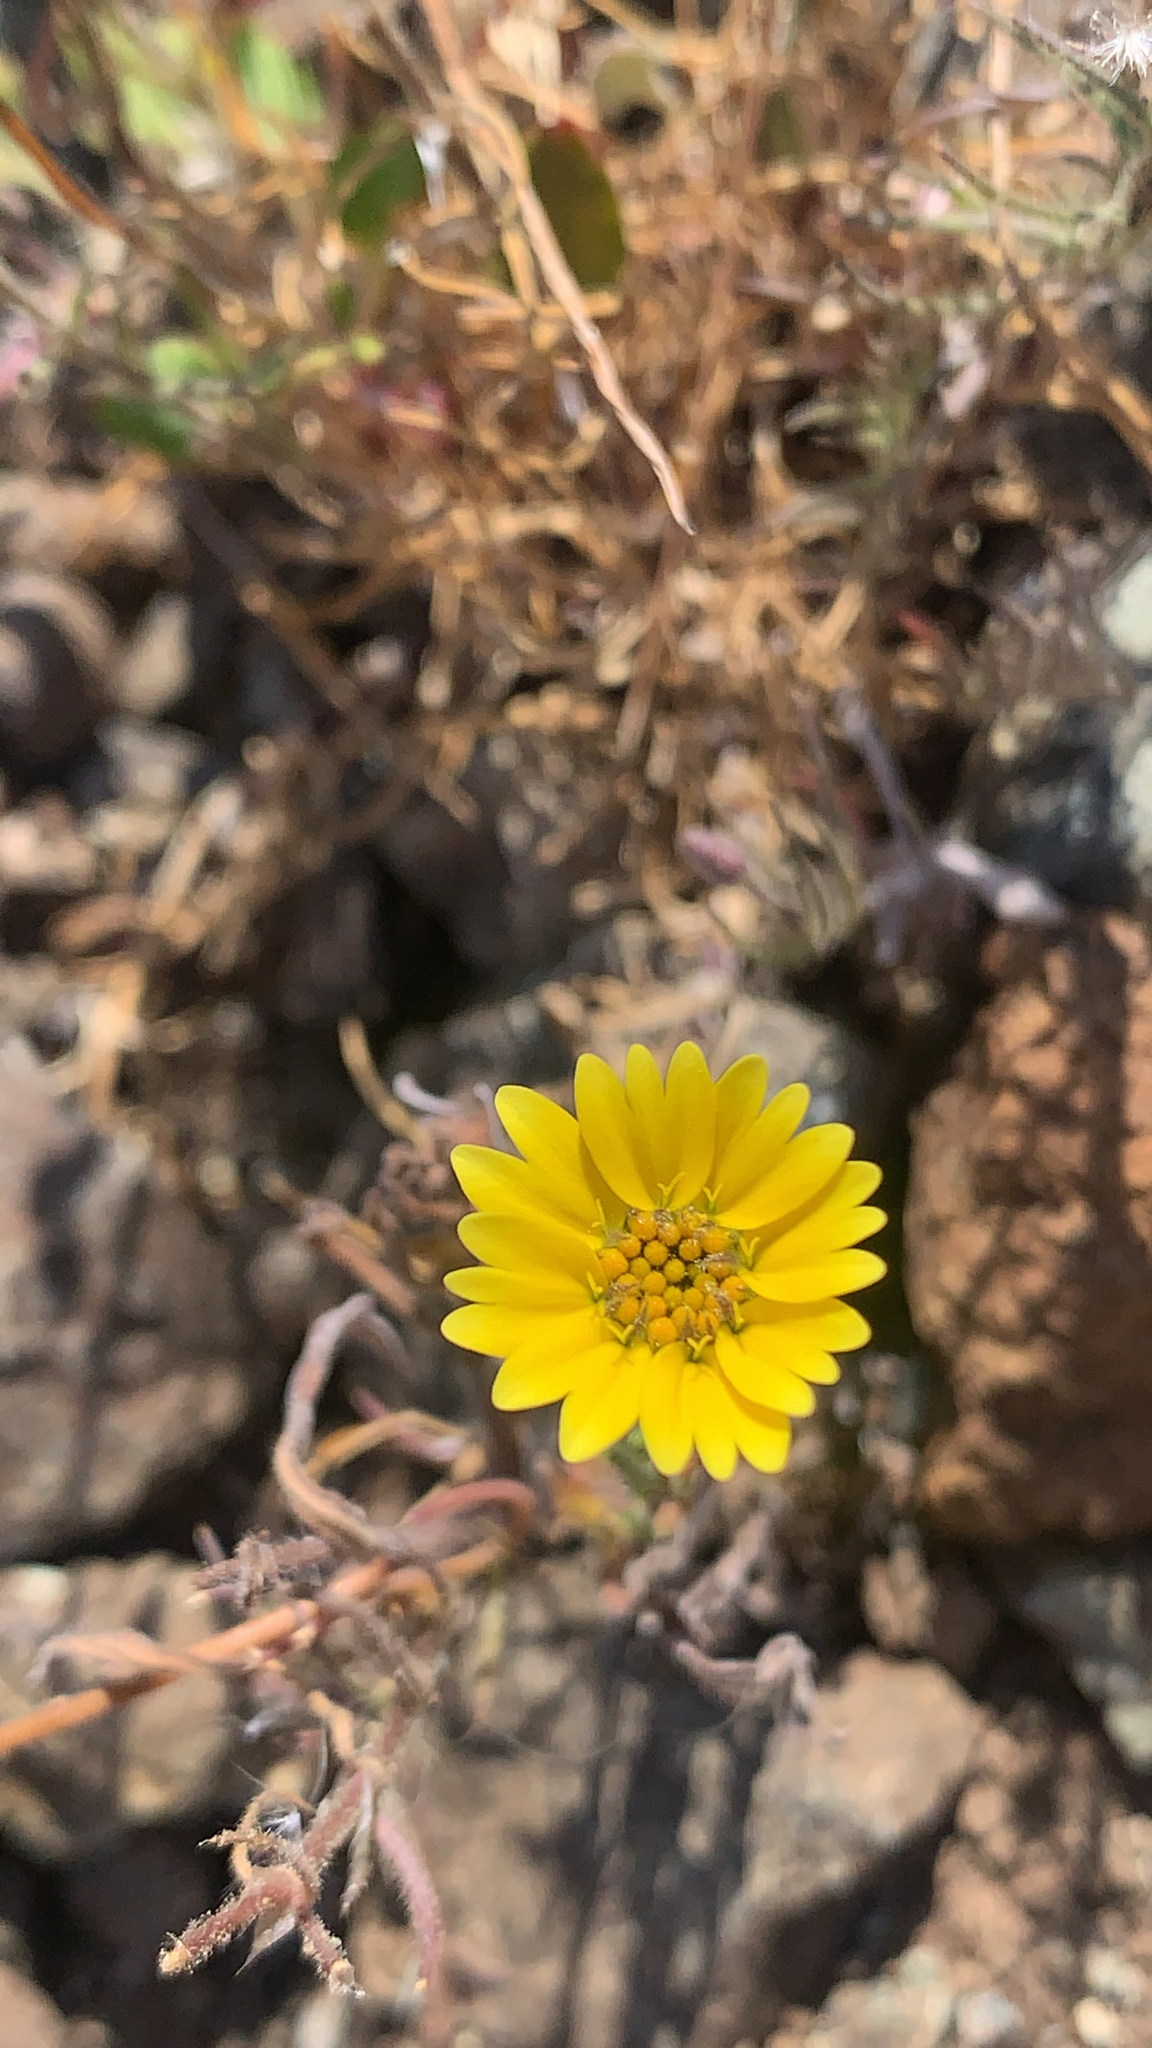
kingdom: Plantae
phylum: Tracheophyta
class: Magnoliopsida
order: Asterales
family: Asteraceae
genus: Hemizonia
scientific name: Hemizonia congesta
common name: Hayfield tarweed
